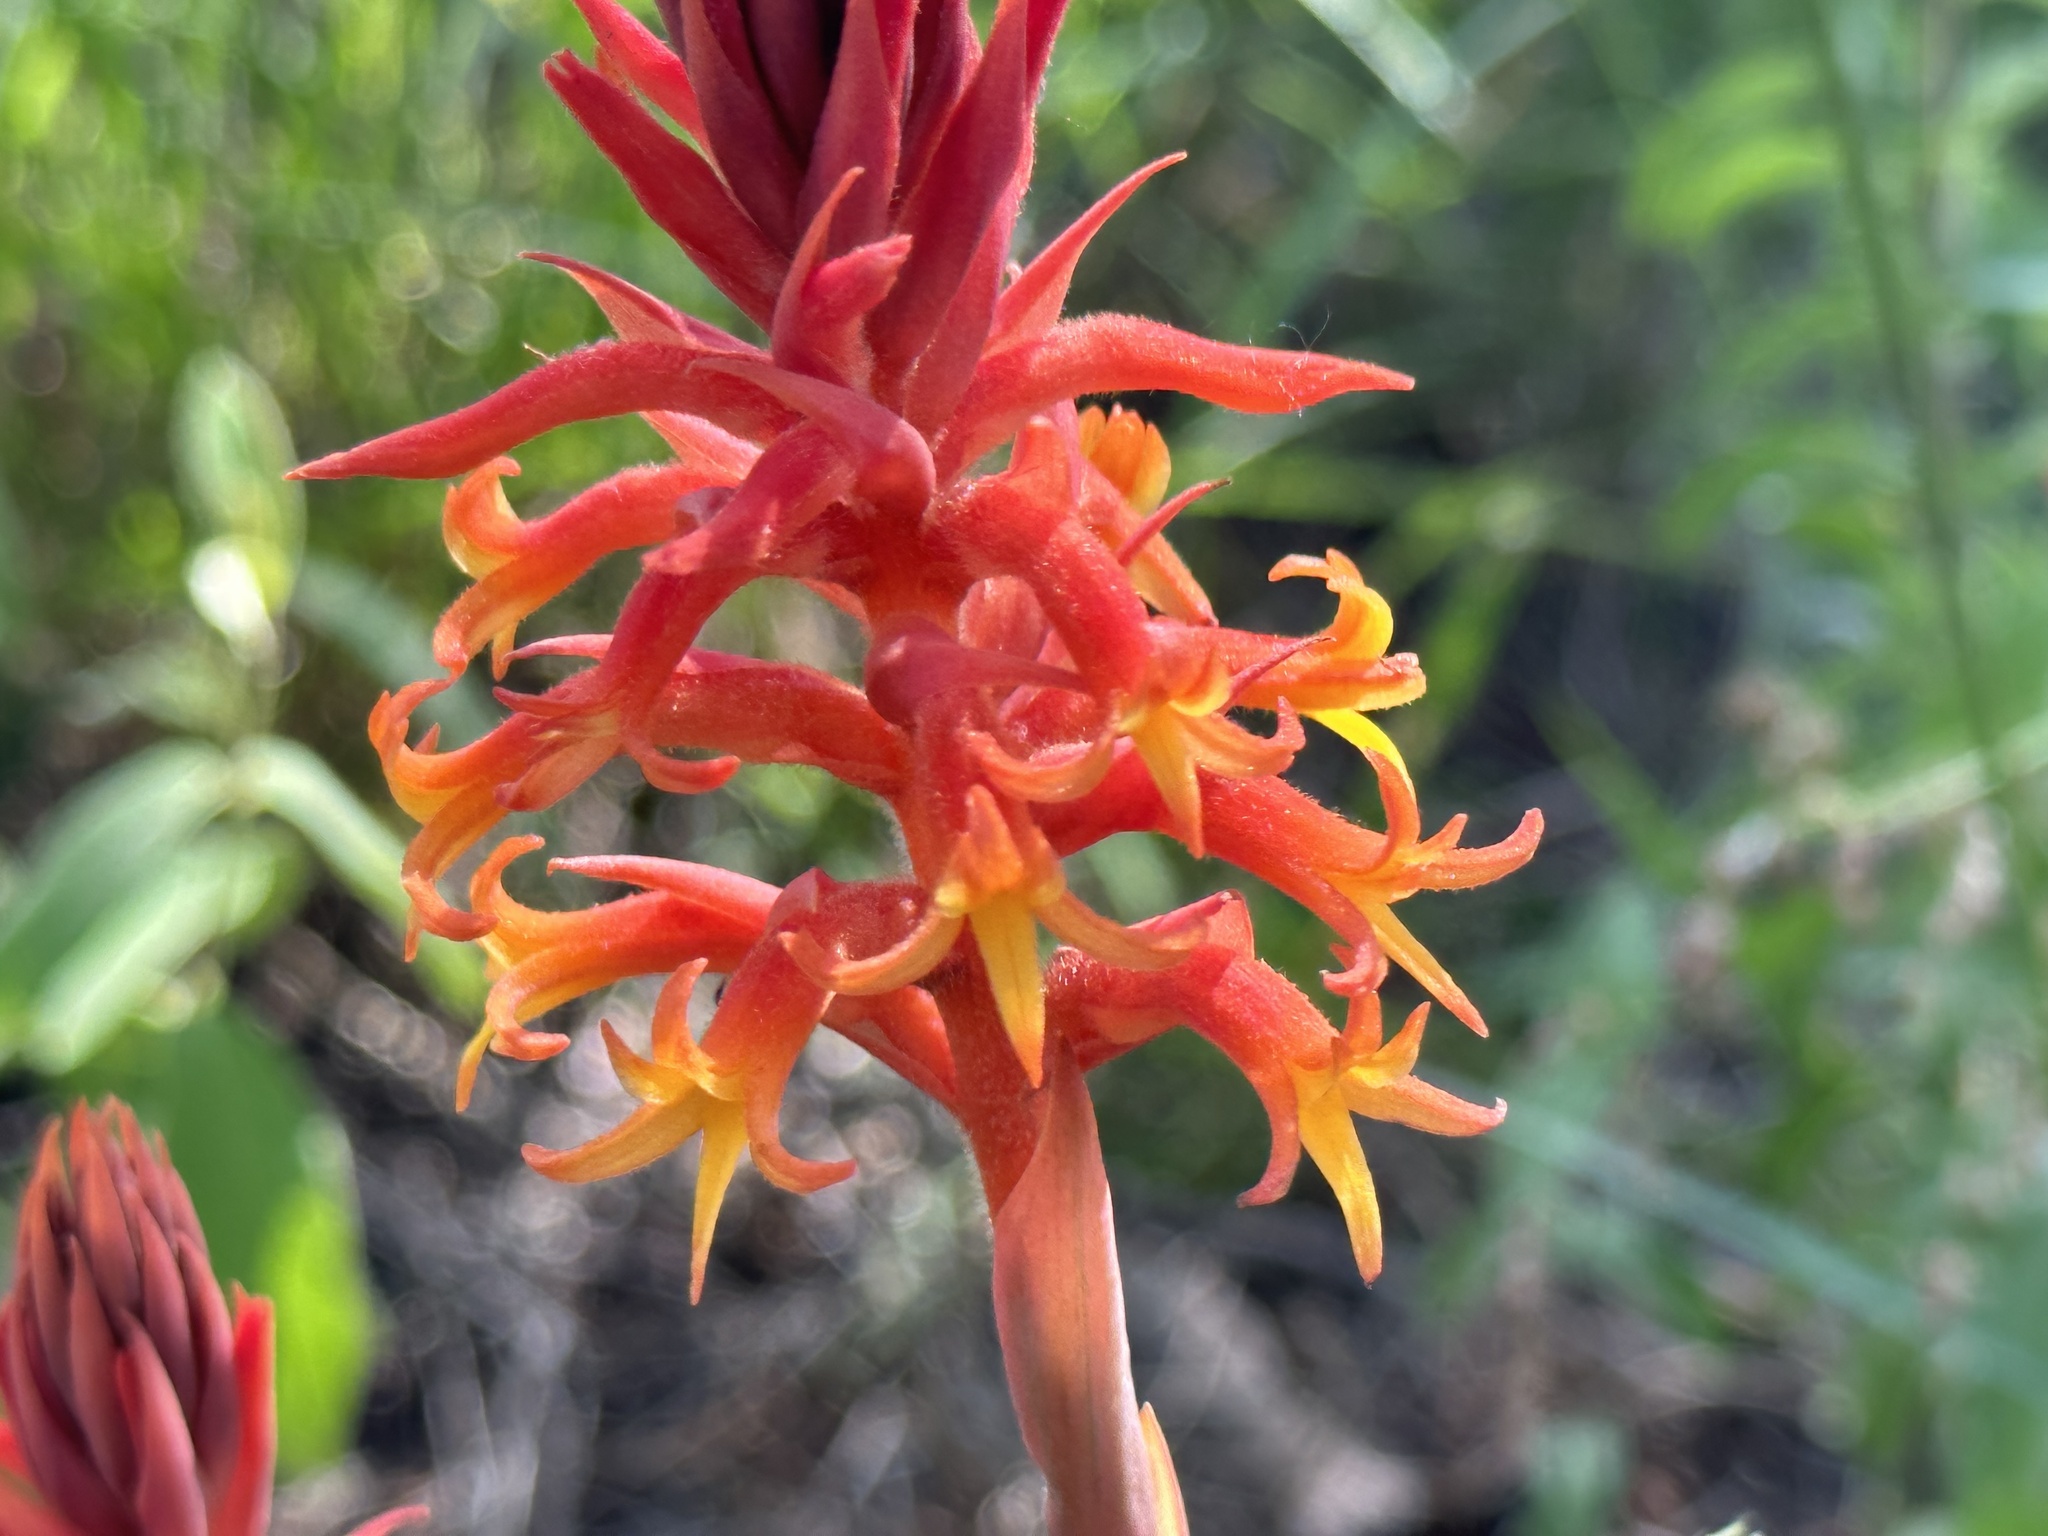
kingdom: Plantae
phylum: Tracheophyta
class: Liliopsida
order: Asparagales
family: Orchidaceae
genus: Dichromanthus
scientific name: Dichromanthus cinnabarinus
